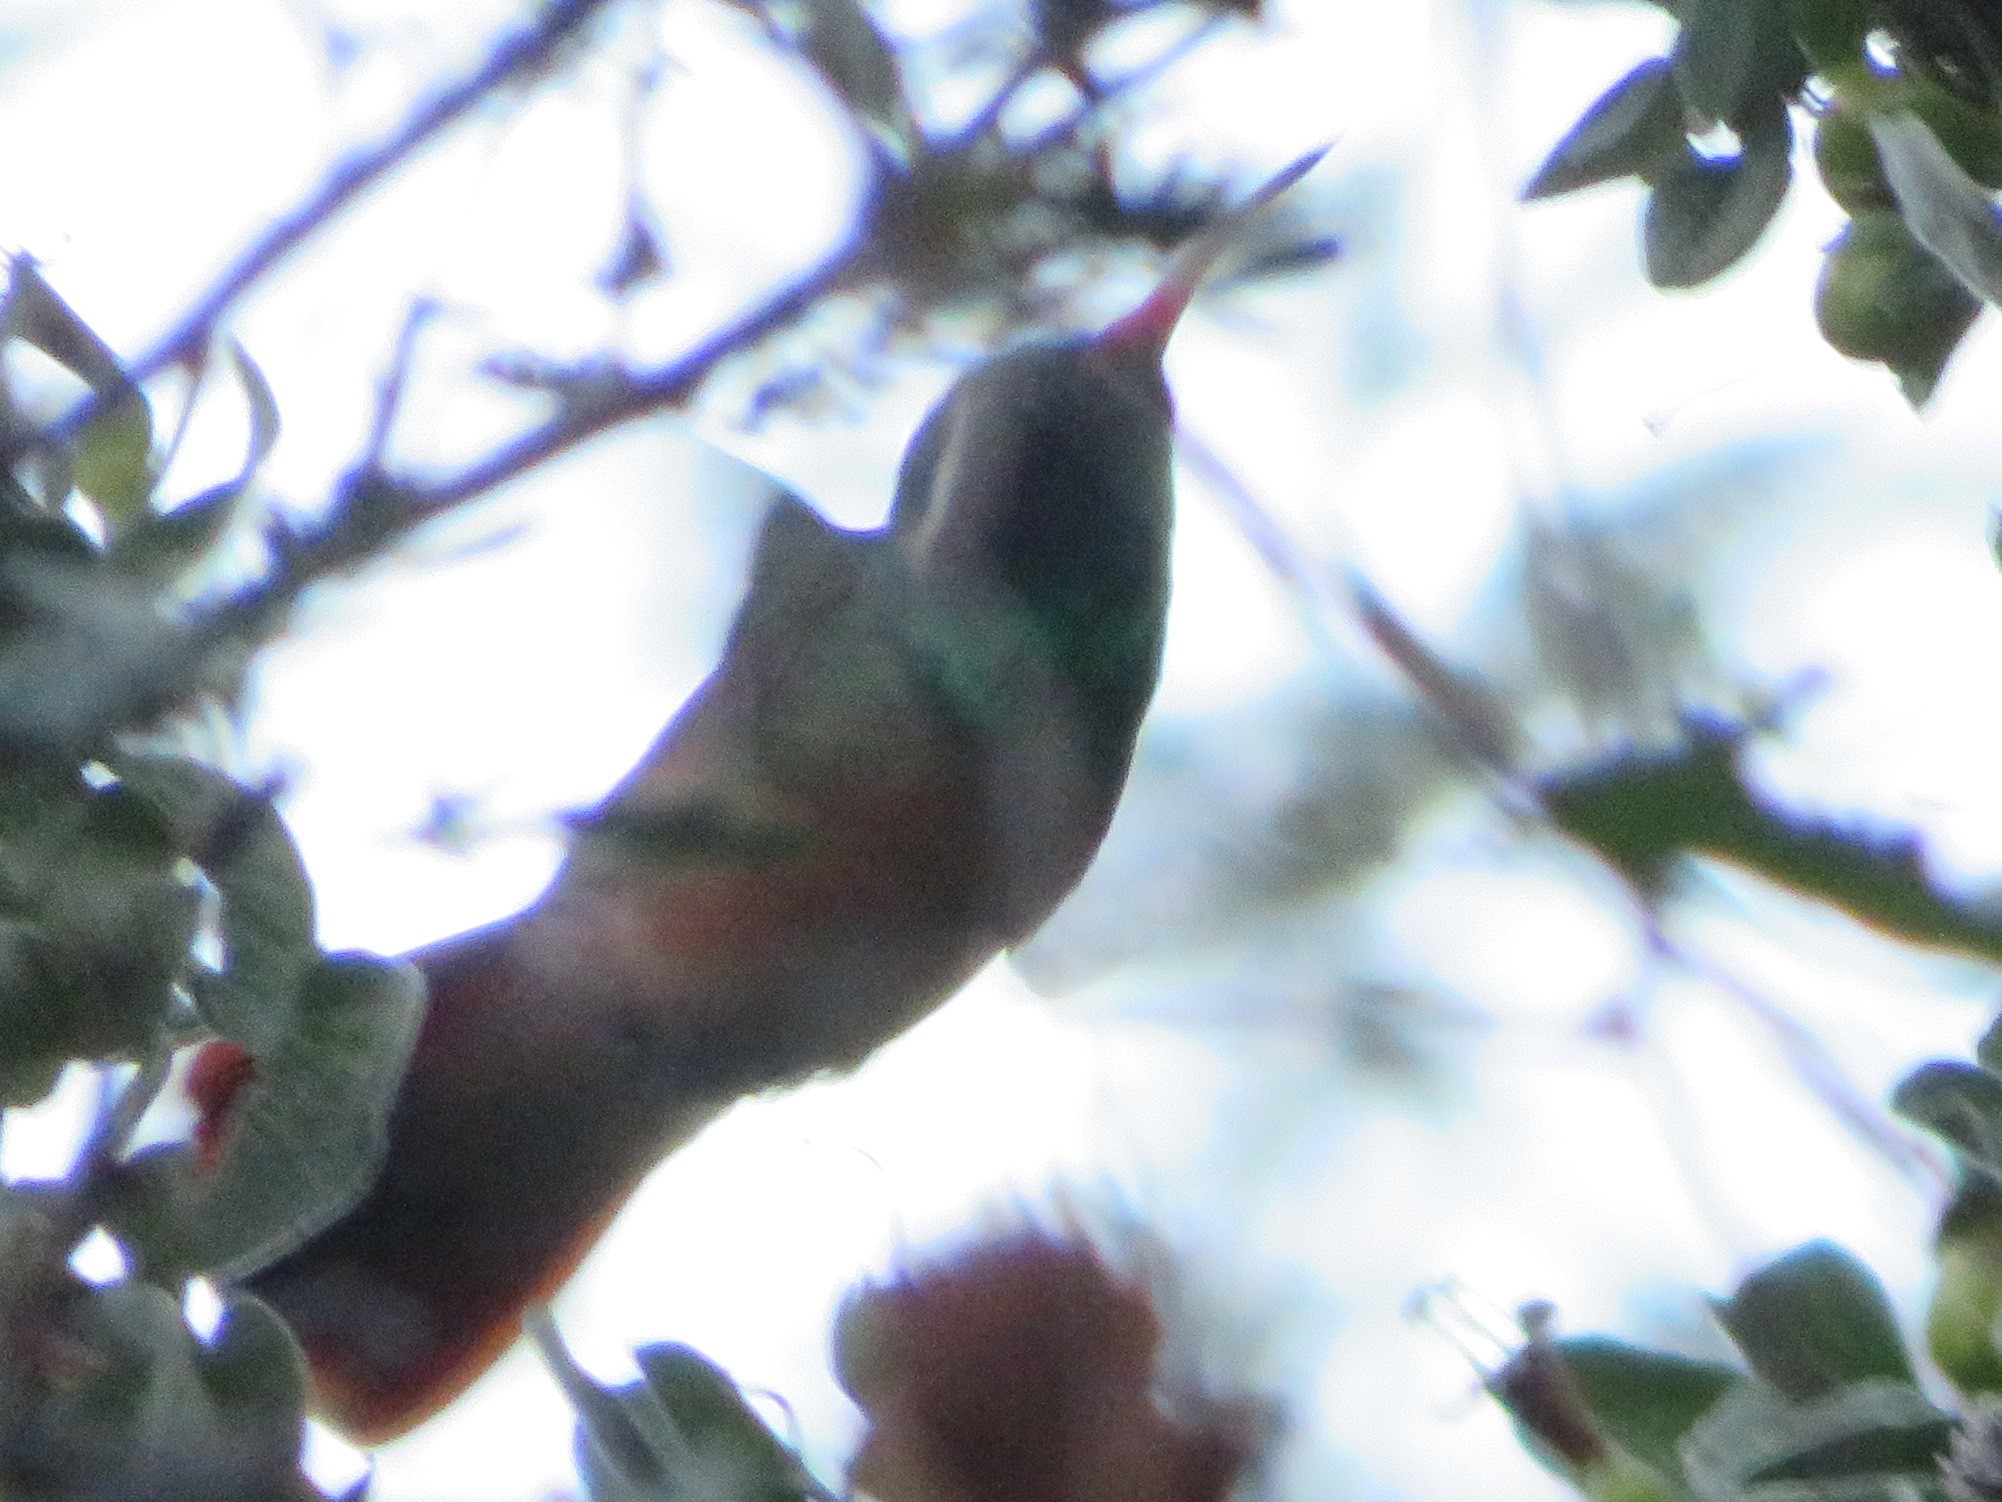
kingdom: Animalia
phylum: Chordata
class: Aves
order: Apodiformes
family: Trochilidae
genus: Basilinna
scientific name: Basilinna xantusii
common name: Xantus's hummingbird
